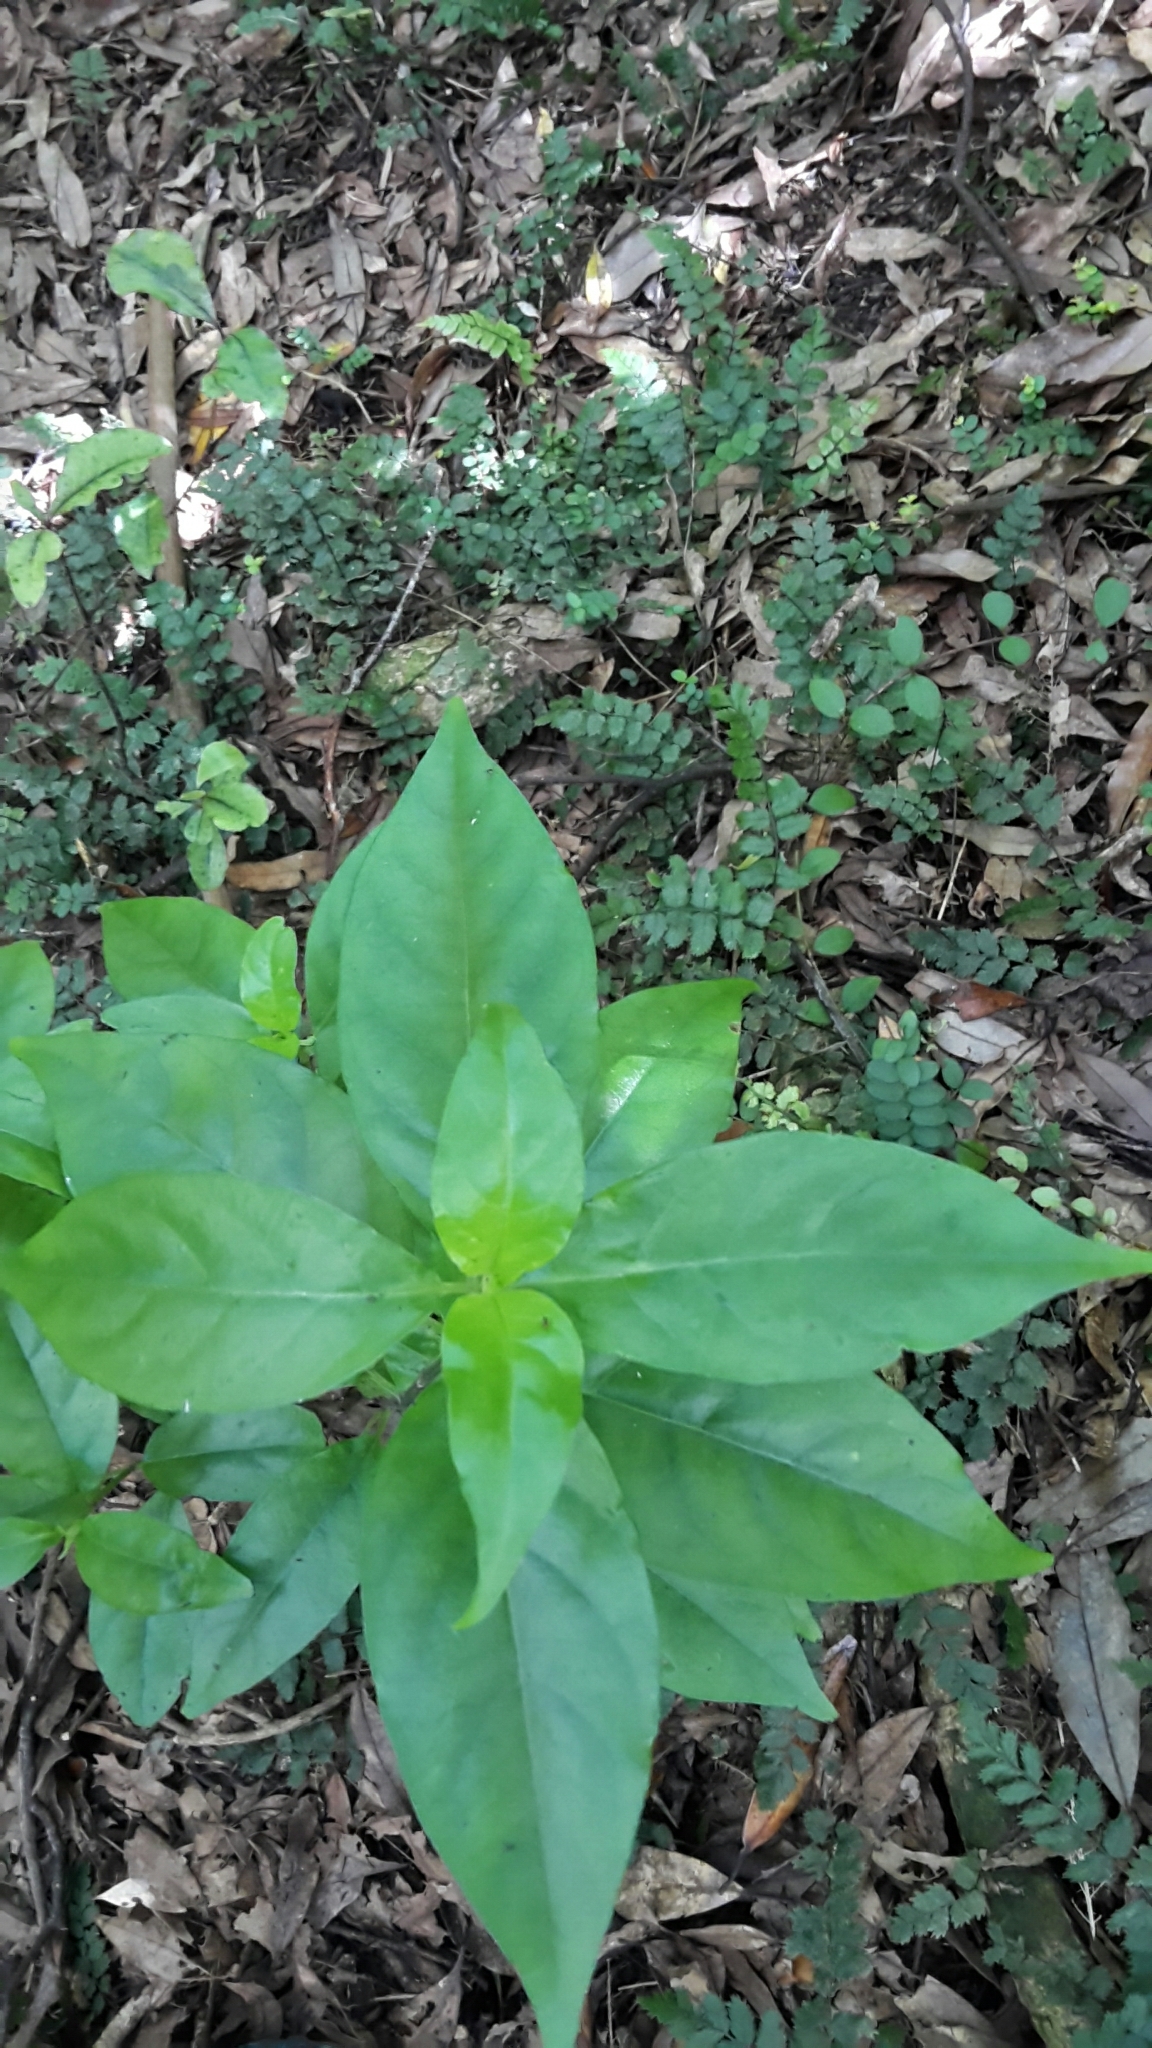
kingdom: Plantae
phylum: Tracheophyta
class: Magnoliopsida
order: Gentianales
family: Loganiaceae
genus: Geniostoma
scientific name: Geniostoma ligustrifolium
